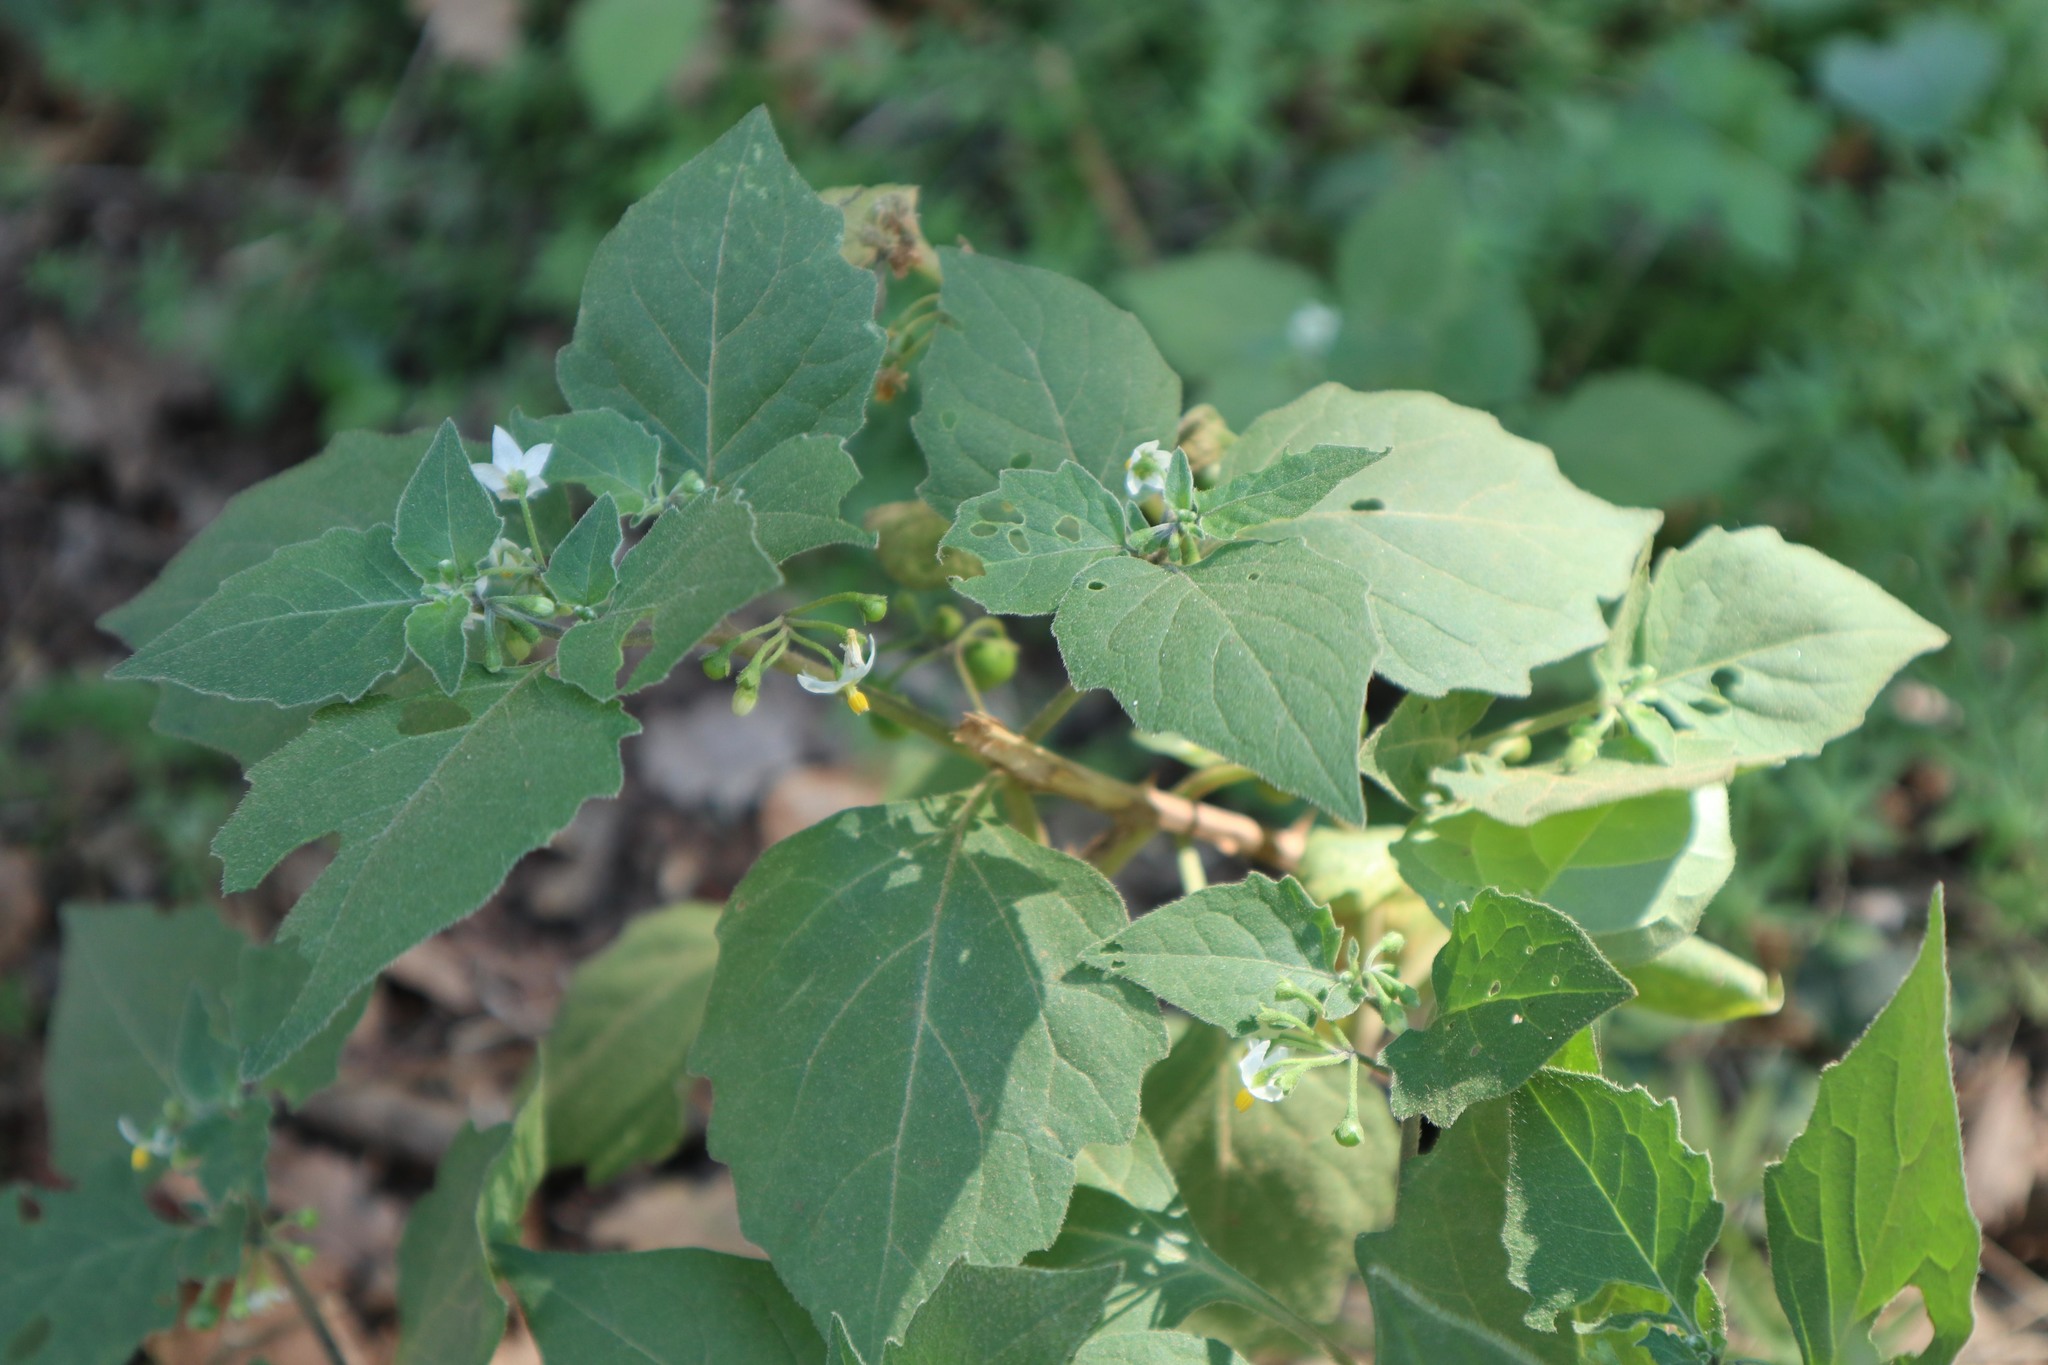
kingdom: Plantae
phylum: Tracheophyta
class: Magnoliopsida
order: Solanales
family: Solanaceae
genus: Solanum
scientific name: Solanum nigrum
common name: Black nightshade
